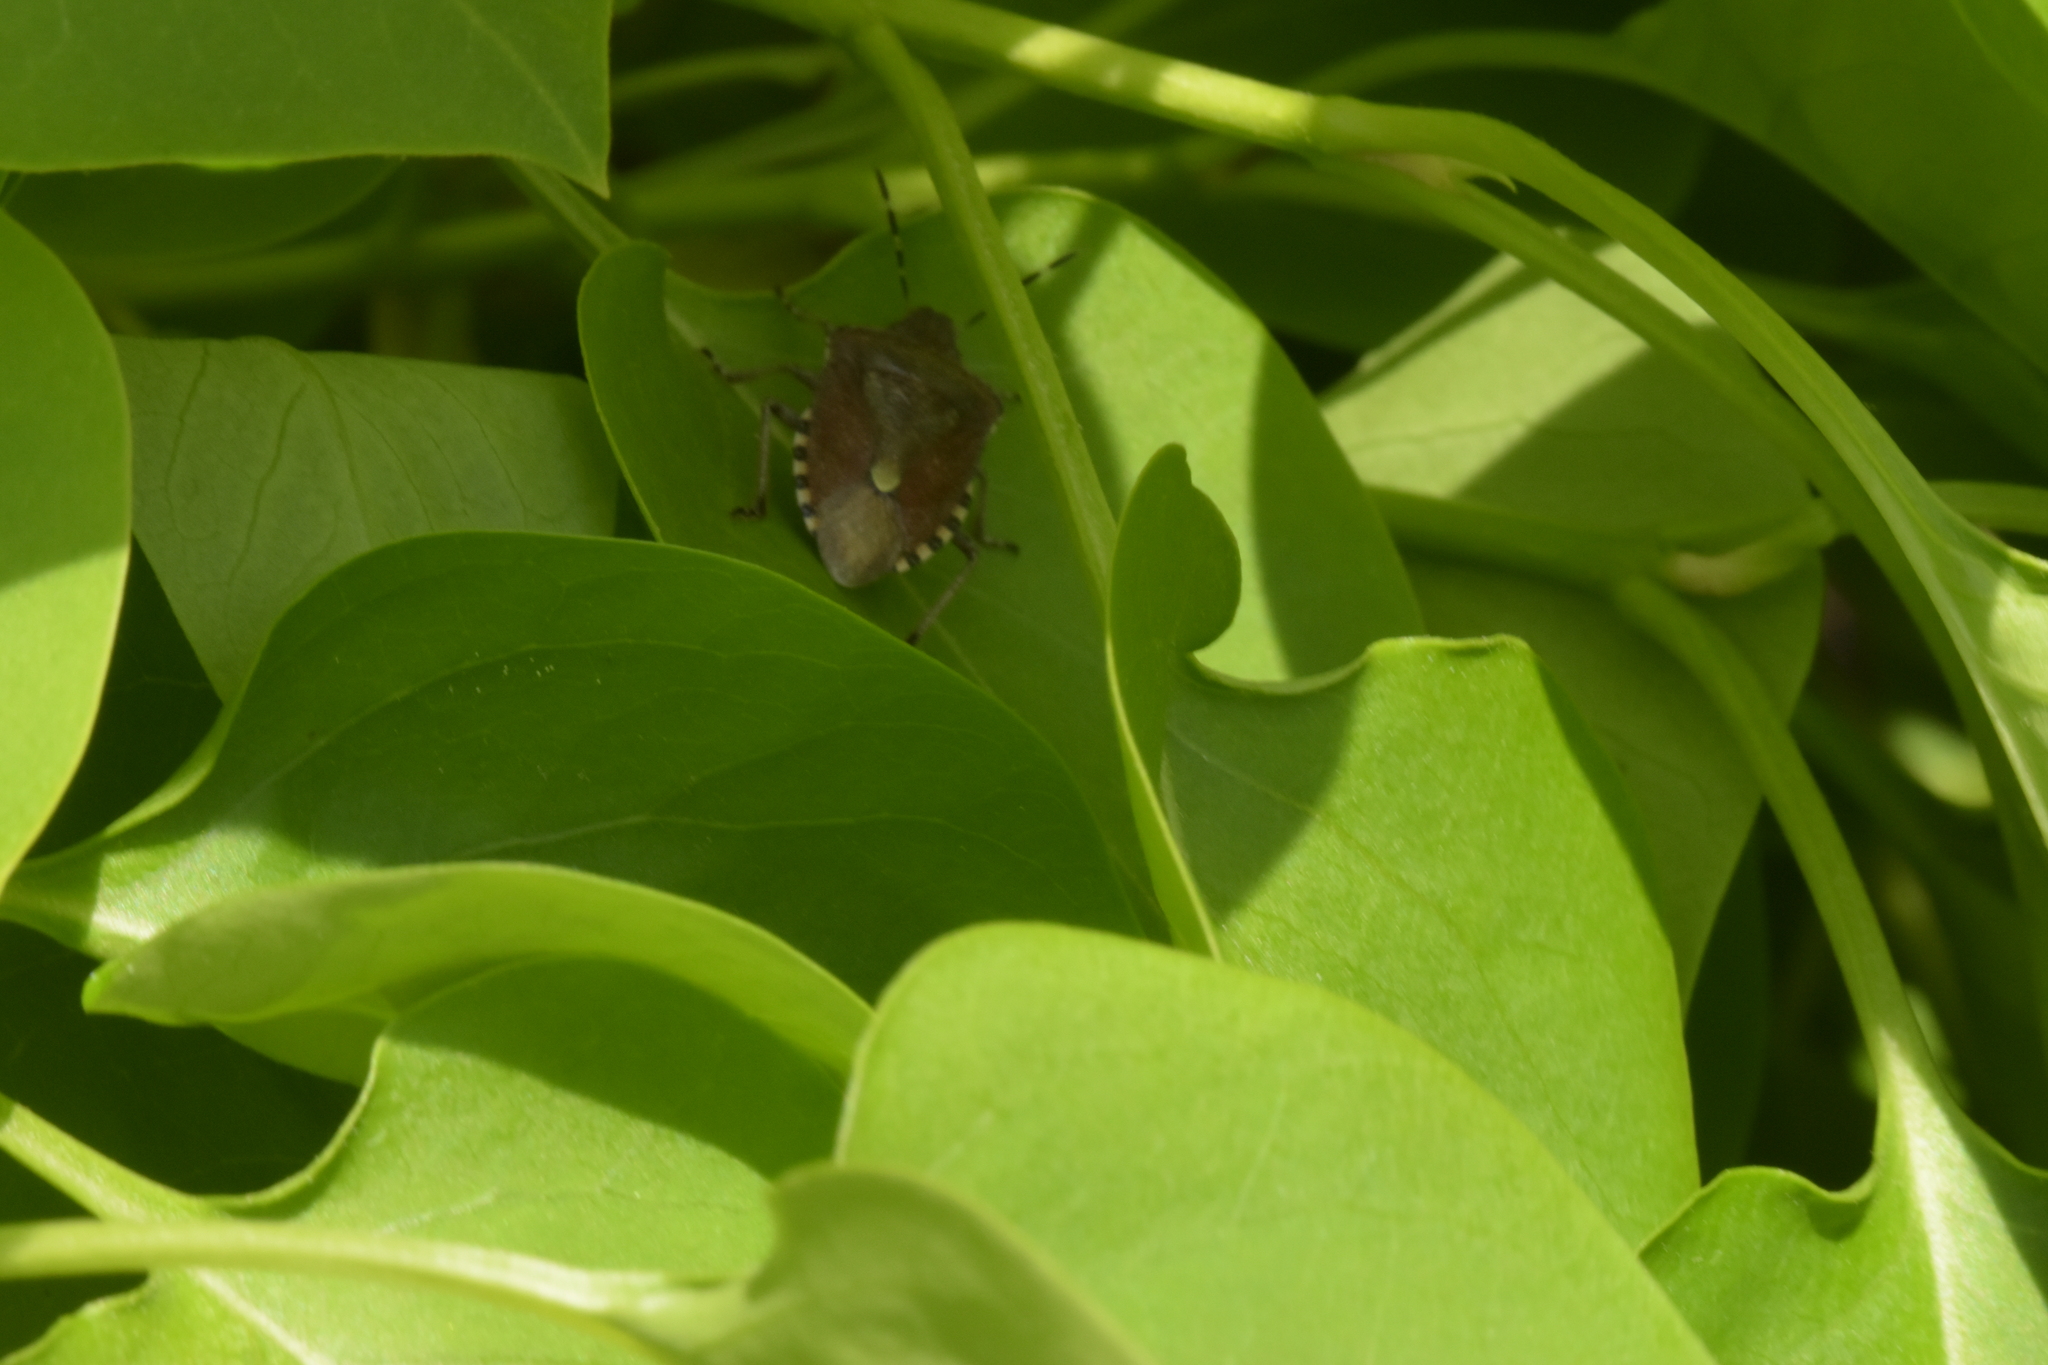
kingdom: Animalia
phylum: Arthropoda
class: Insecta
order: Hemiptera
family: Pentatomidae
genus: Dolycoris
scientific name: Dolycoris baccarum
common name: Sloe bug
